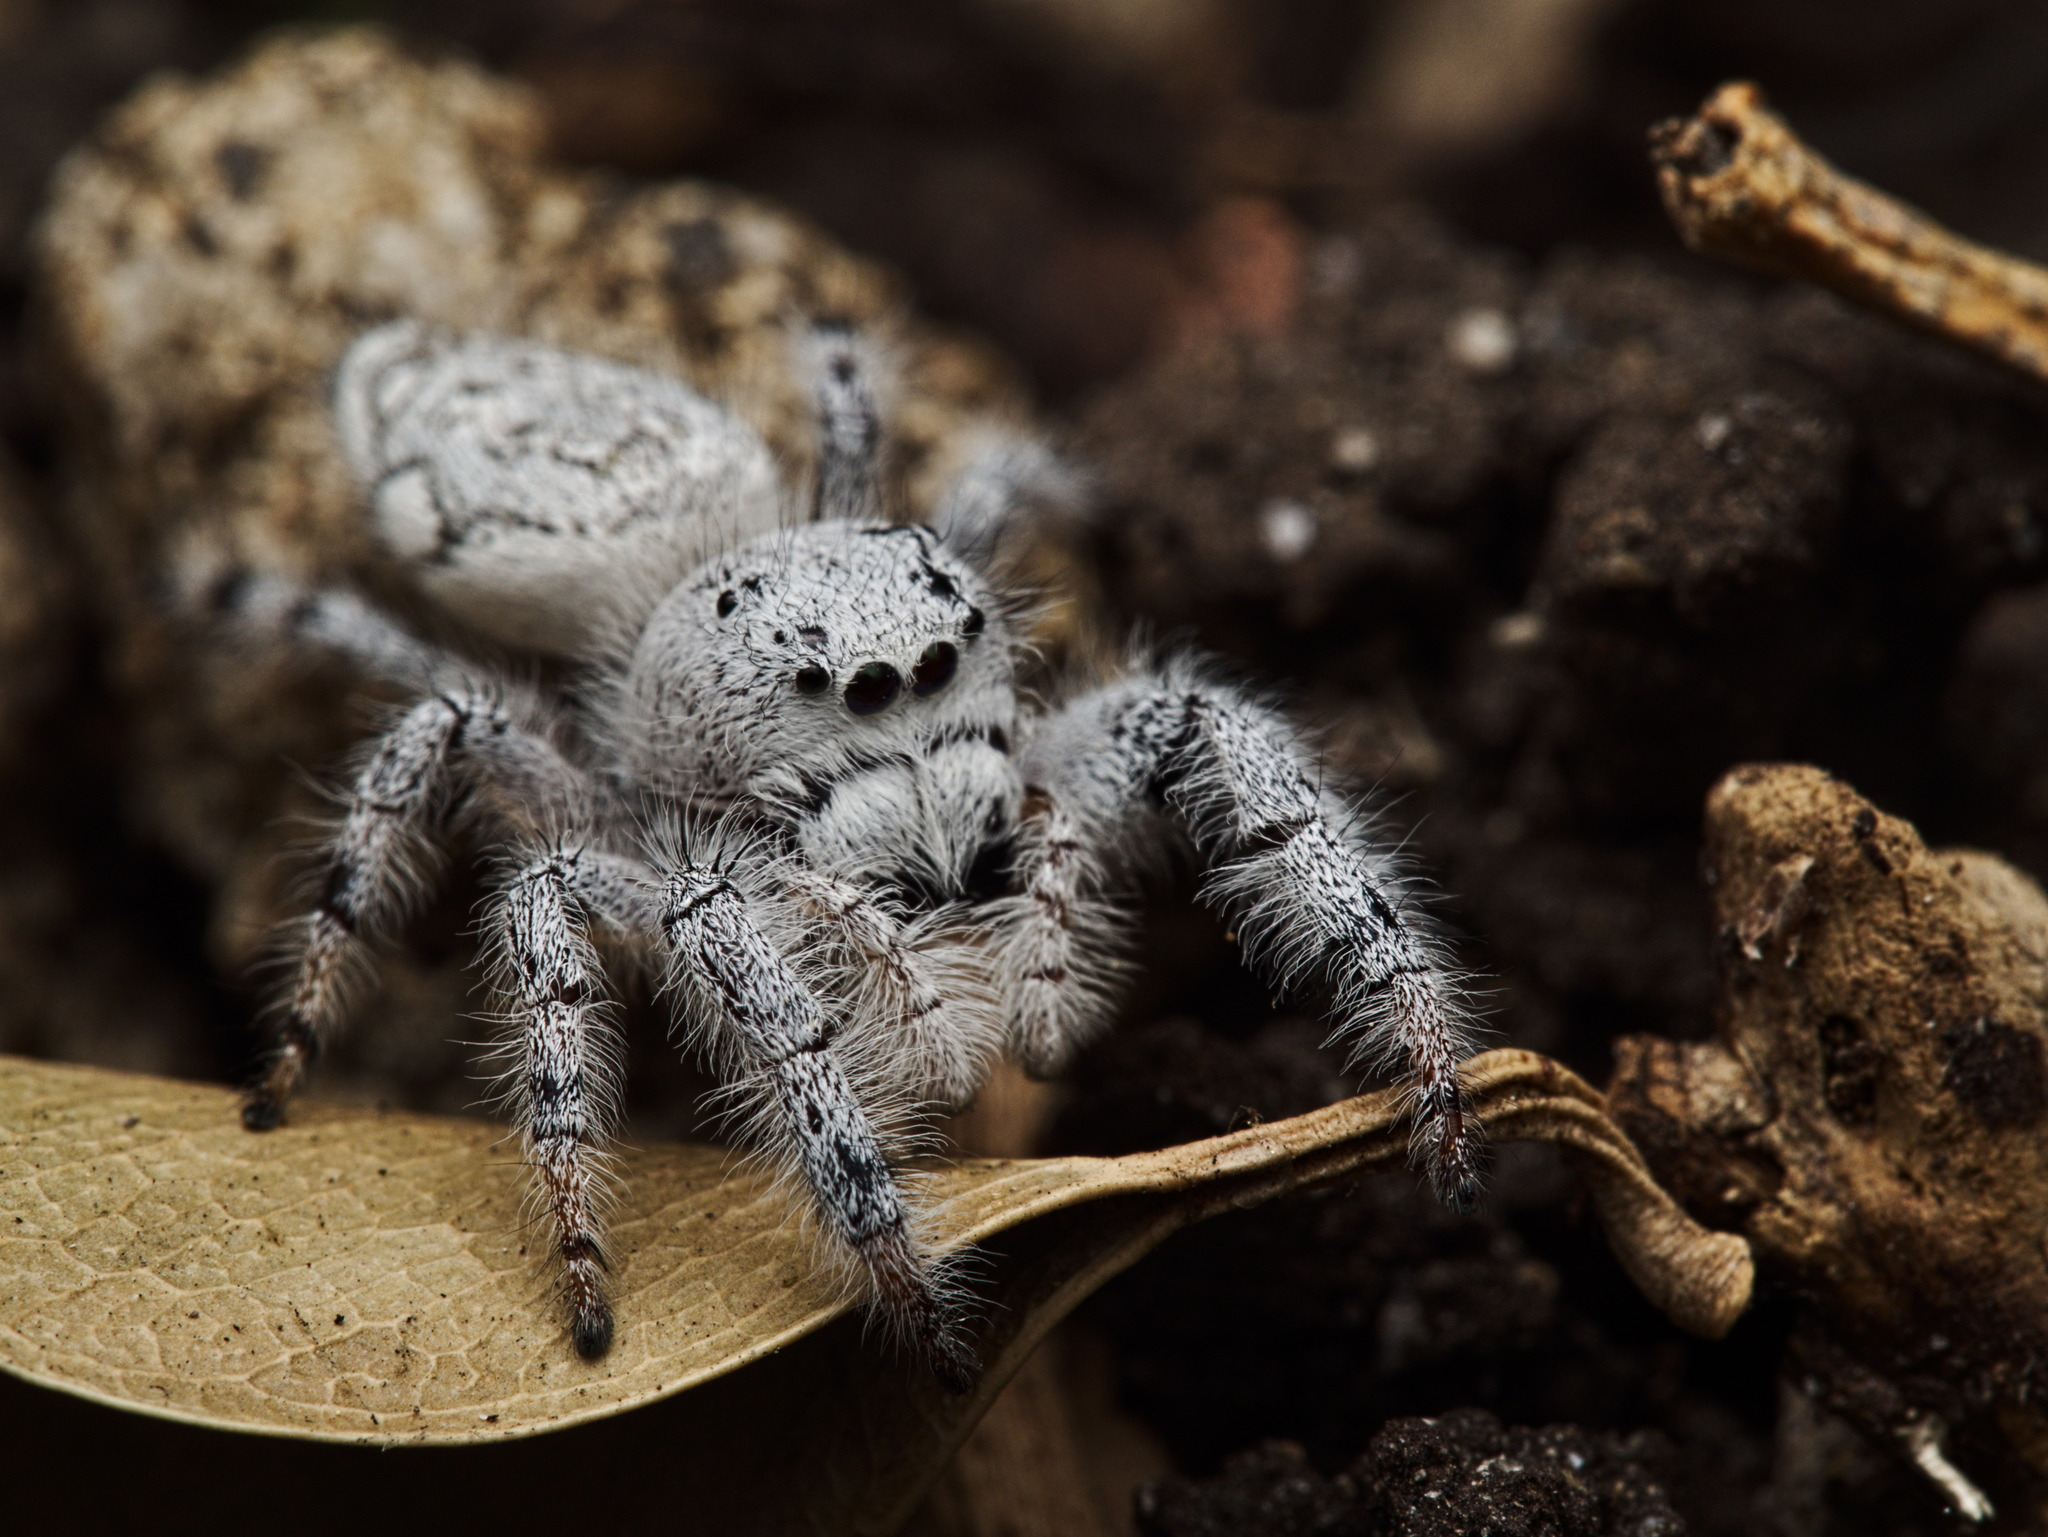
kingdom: Animalia
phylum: Arthropoda
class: Arachnida
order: Araneae
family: Salticidae
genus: Paraphidippus
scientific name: Paraphidippus fartilis
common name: Jumping spiders
